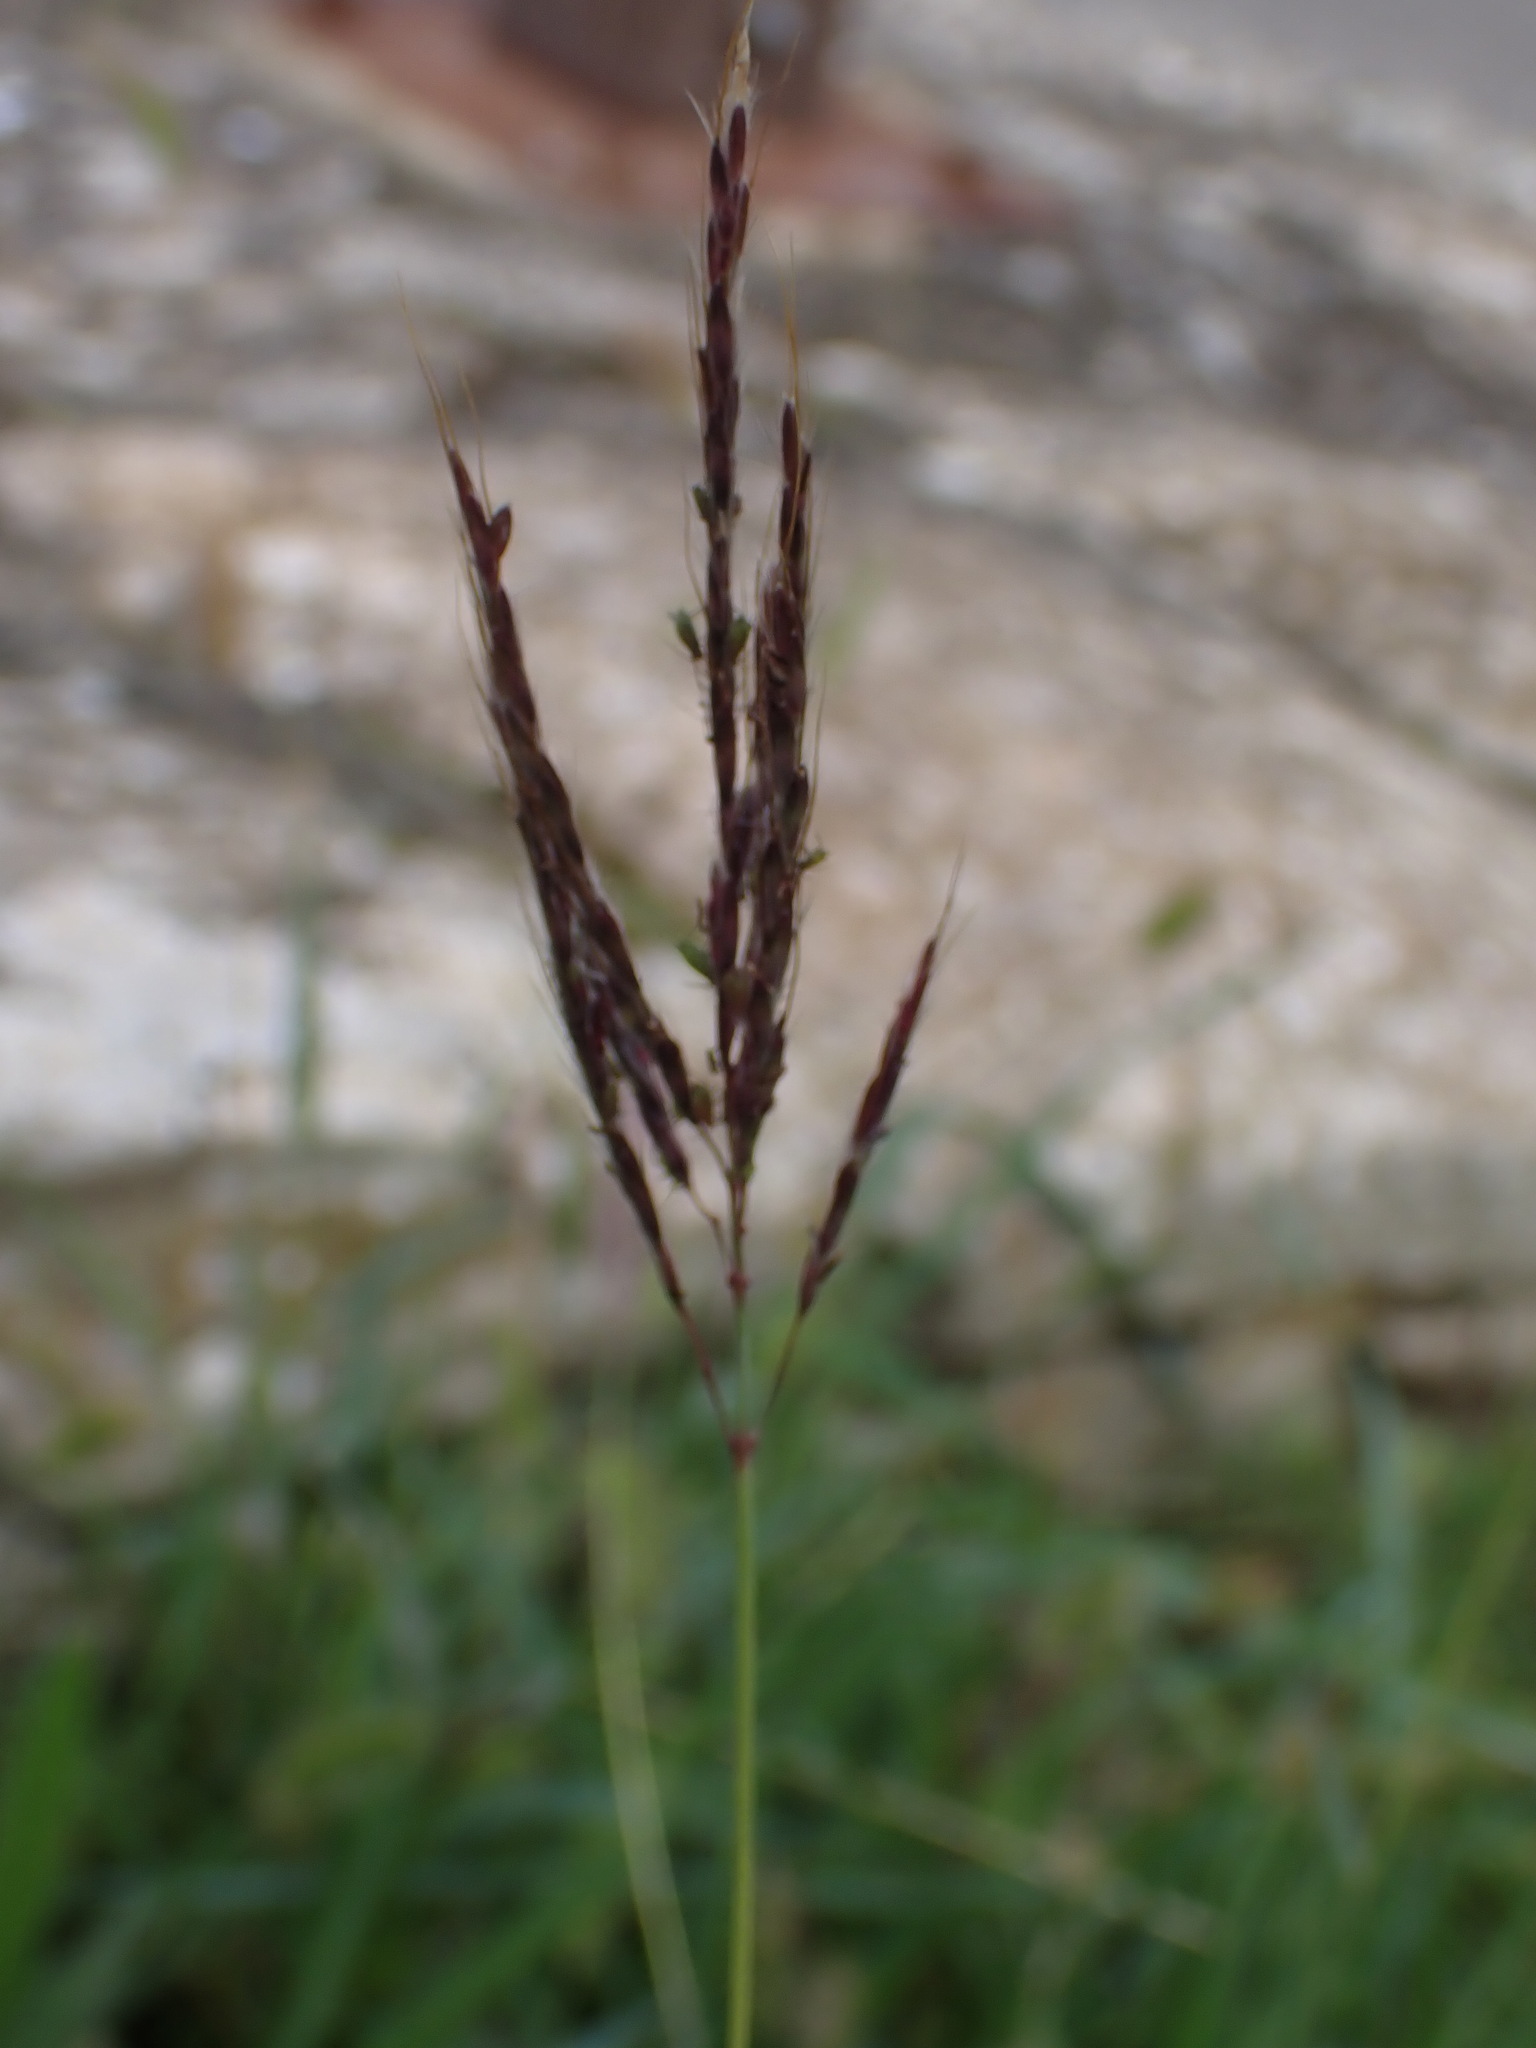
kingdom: Plantae
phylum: Tracheophyta
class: Liliopsida
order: Poales
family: Poaceae
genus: Bothriochloa
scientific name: Bothriochloa ischaemum
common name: Yellow bluestem
